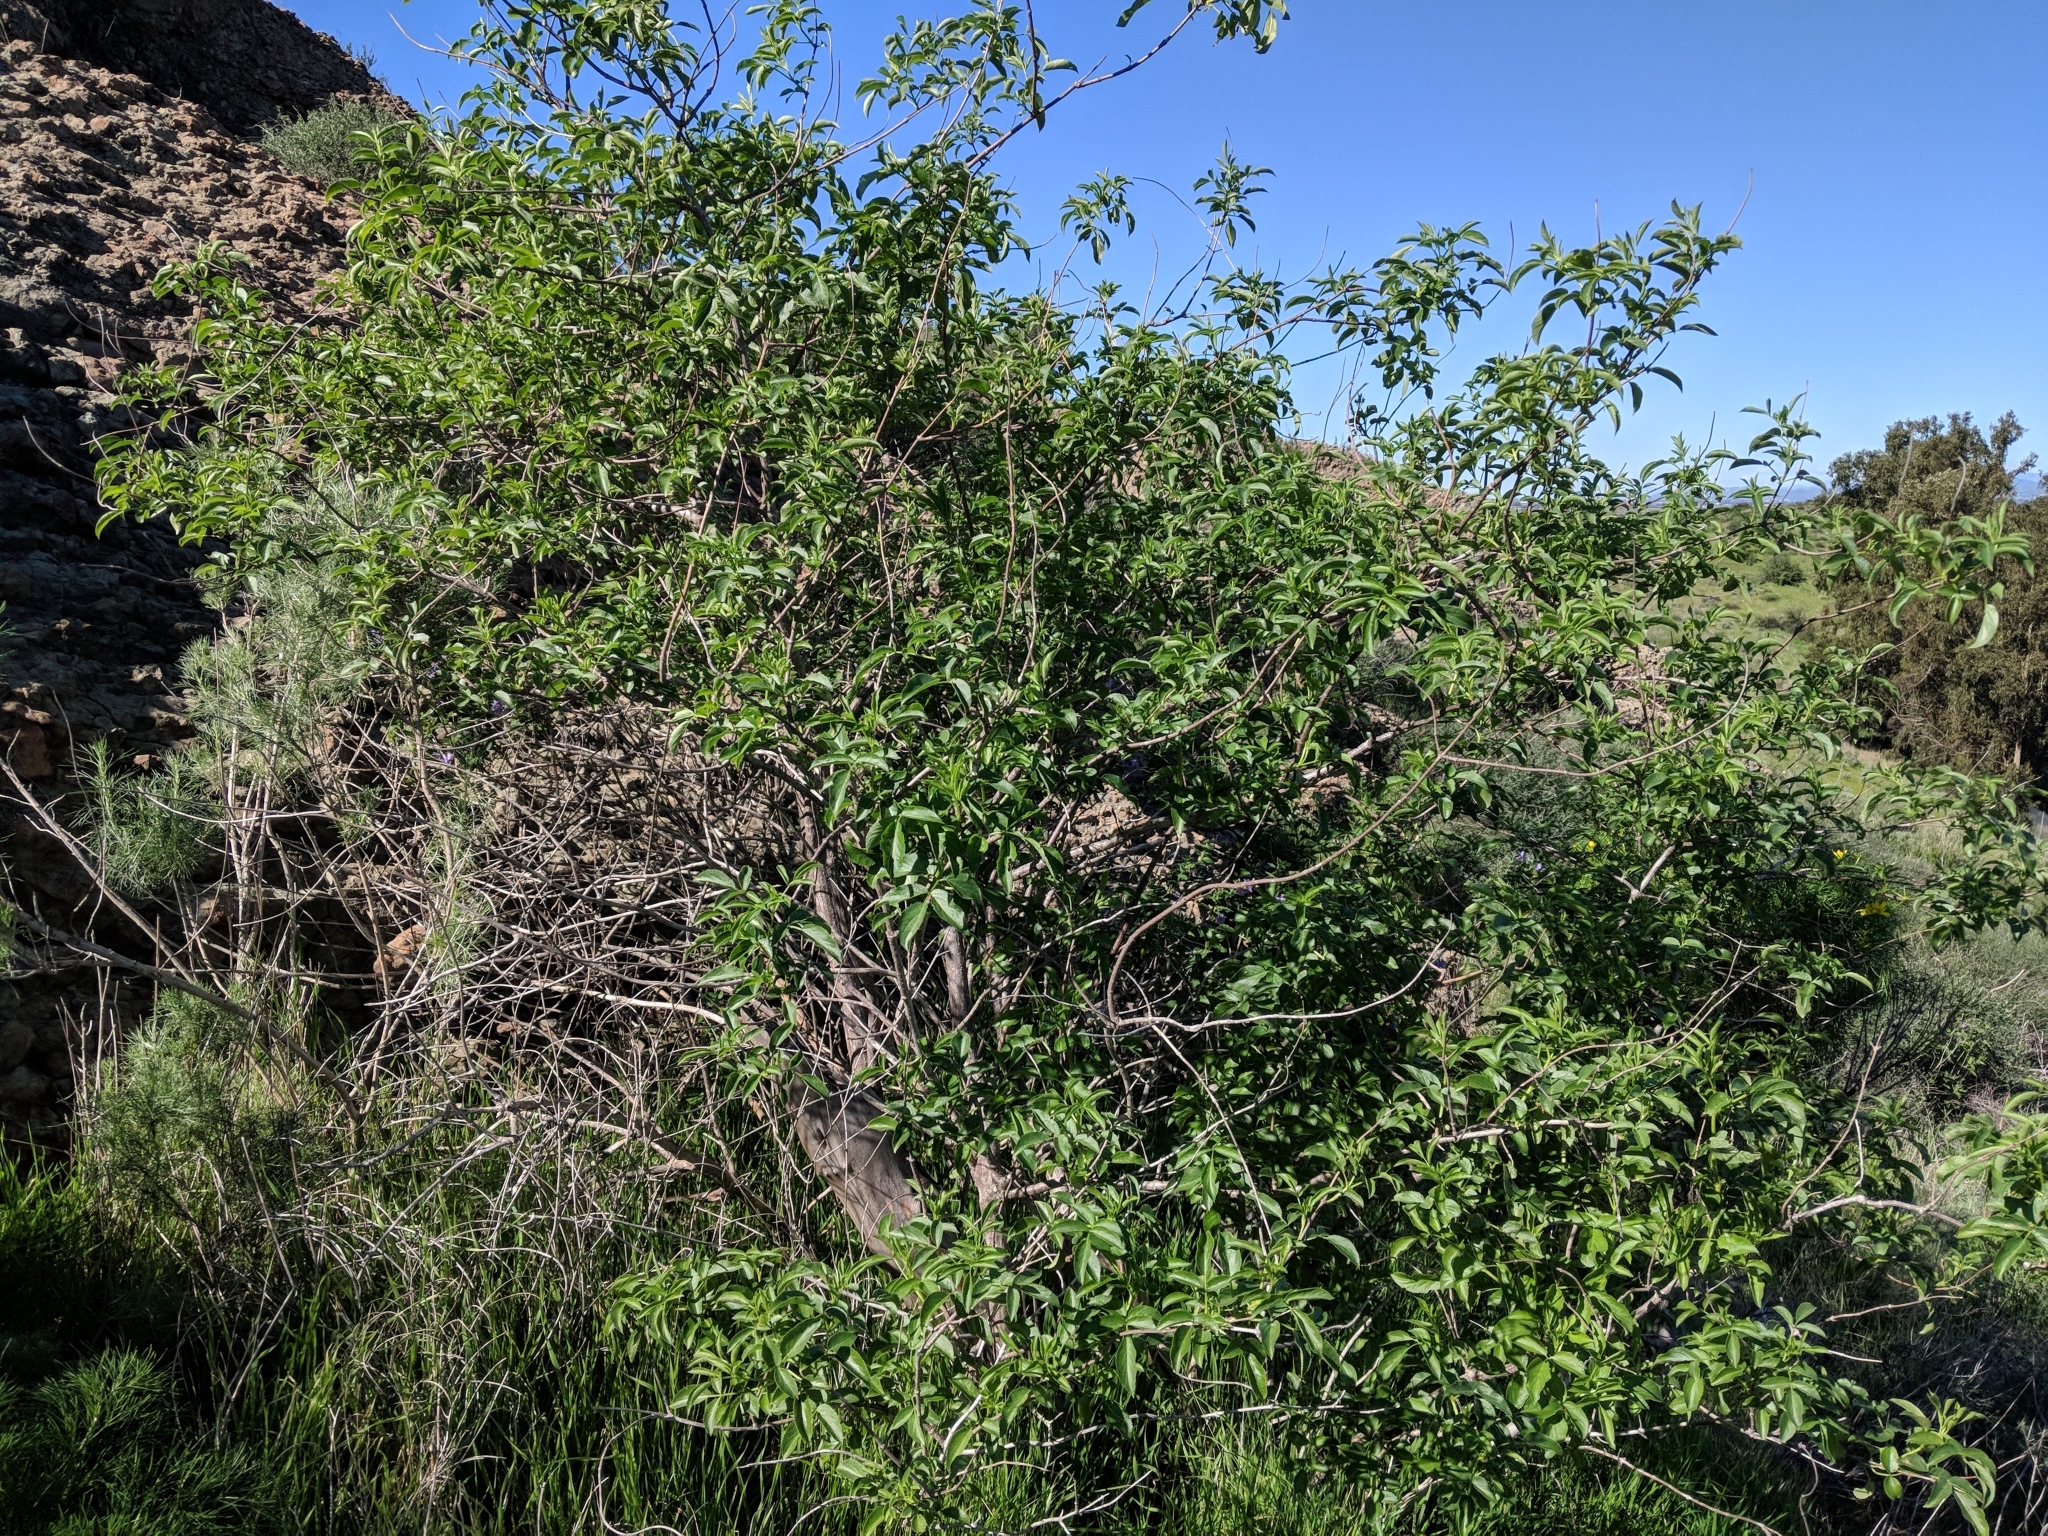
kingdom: Plantae
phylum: Tracheophyta
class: Magnoliopsida
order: Dipsacales
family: Viburnaceae
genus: Sambucus
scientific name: Sambucus cerulea
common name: Blue elder
